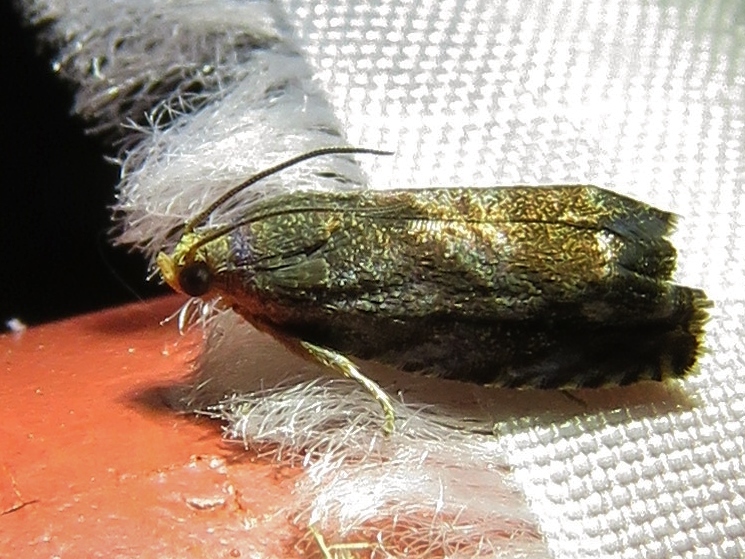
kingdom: Animalia
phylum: Arthropoda
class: Insecta
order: Lepidoptera
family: Tortricidae
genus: Cydia
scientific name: Cydia caryana
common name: Hickory shuckworm moth
